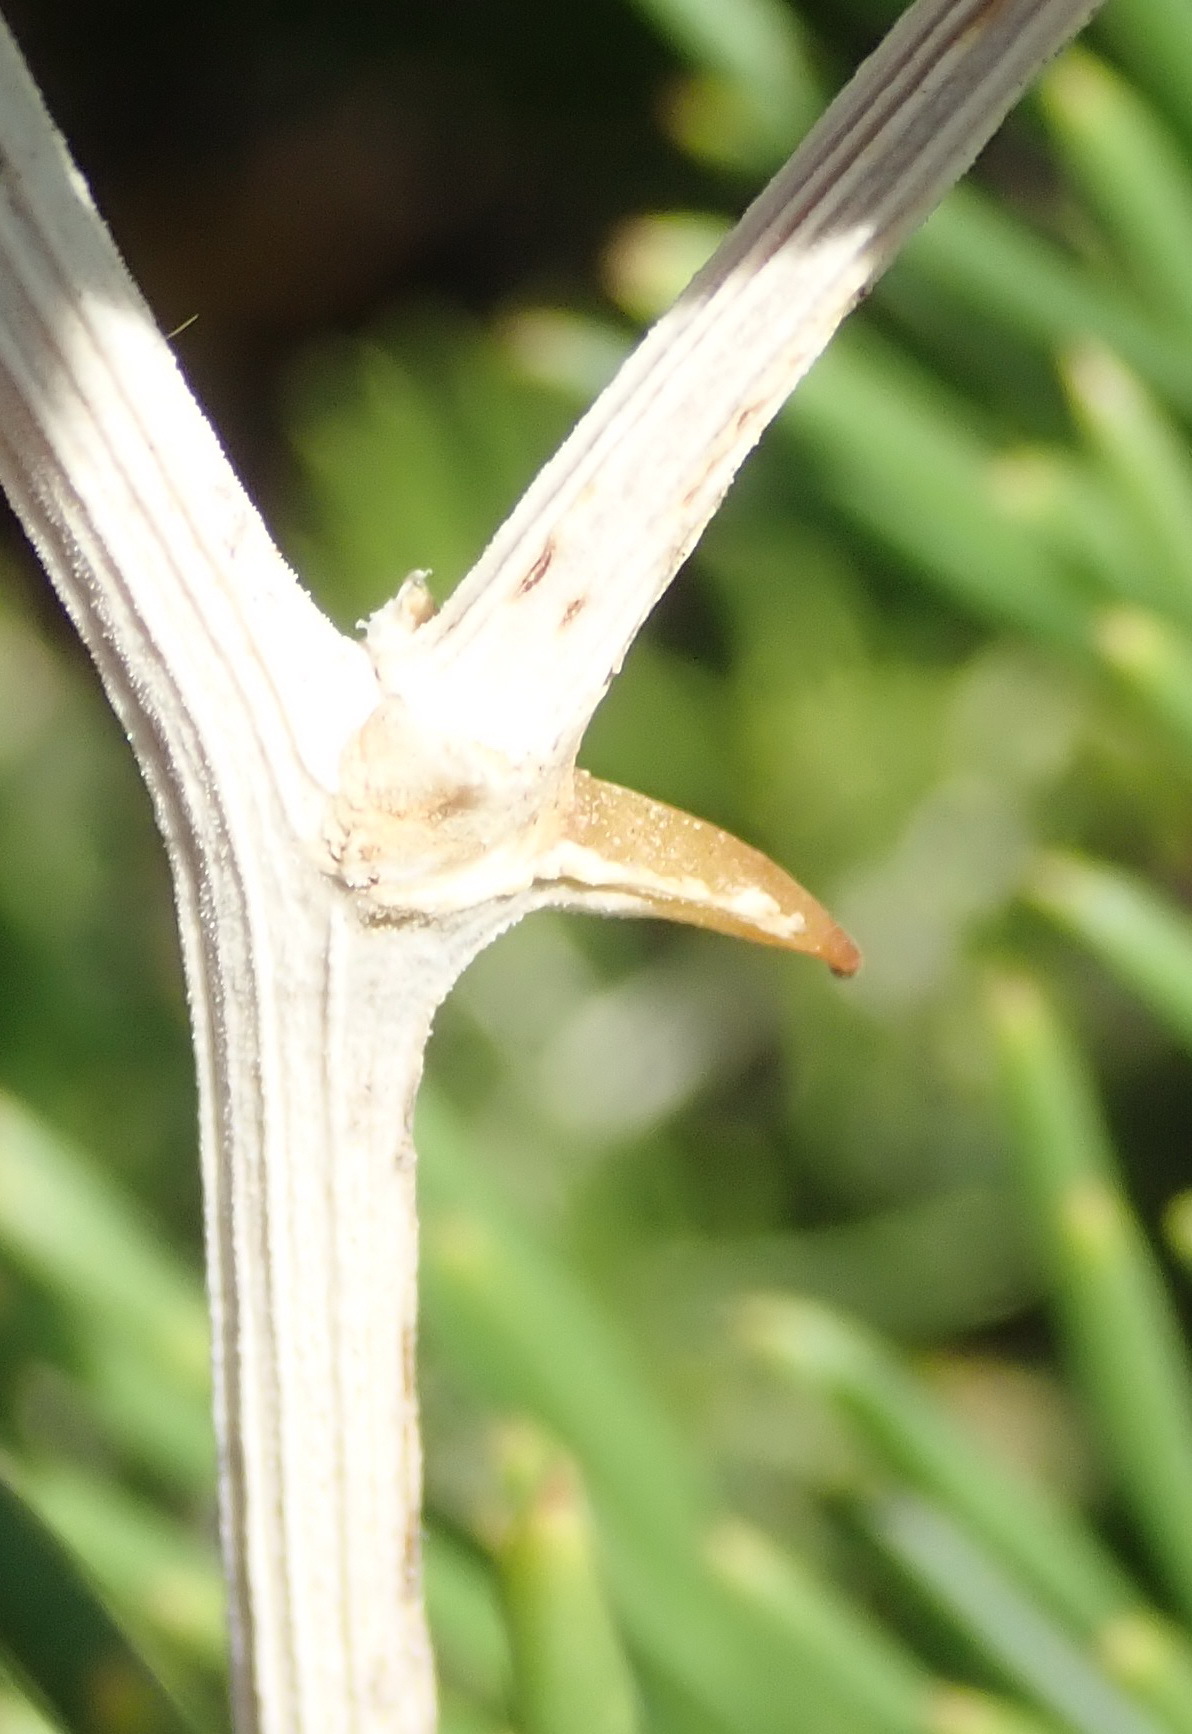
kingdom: Plantae
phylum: Tracheophyta
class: Liliopsida
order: Asparagales
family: Asparagaceae
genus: Asparagus
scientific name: Asparagus lignosus
